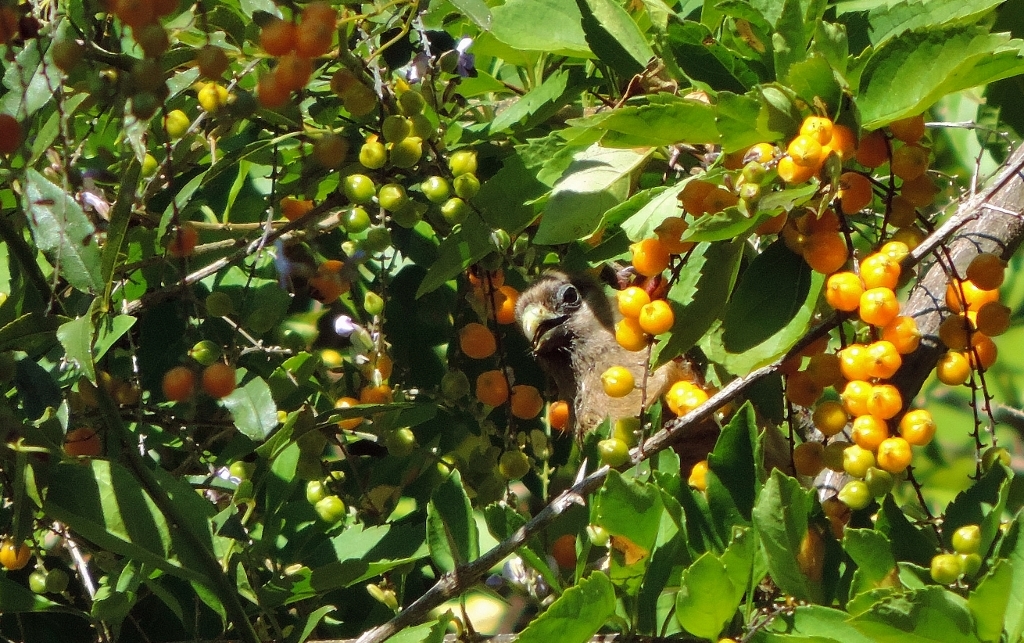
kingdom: Animalia
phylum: Chordata
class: Aves
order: Coliiformes
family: Coliidae
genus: Colius
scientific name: Colius striatus
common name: Speckled mousebird
